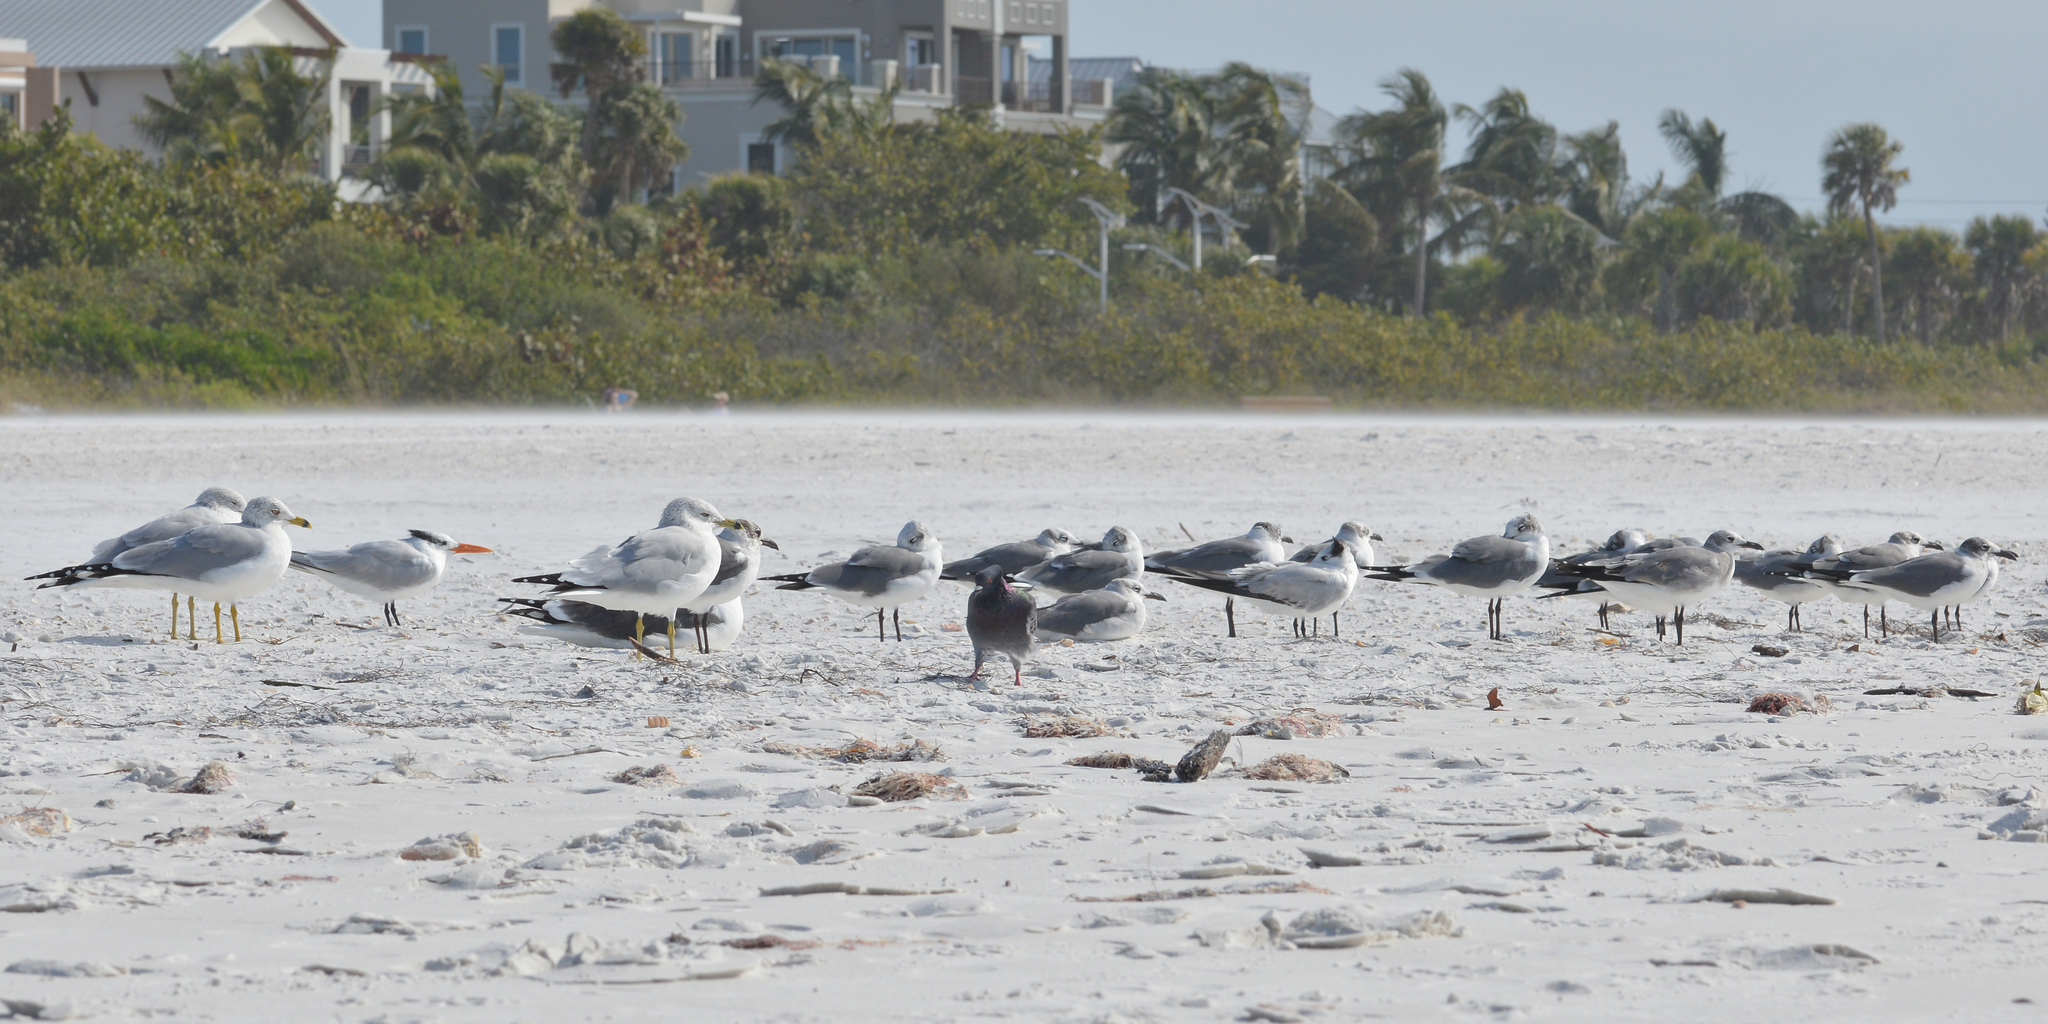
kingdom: Animalia
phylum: Chordata
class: Aves
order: Charadriiformes
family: Laridae
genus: Larus
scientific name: Larus delawarensis
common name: Ring-billed gull
